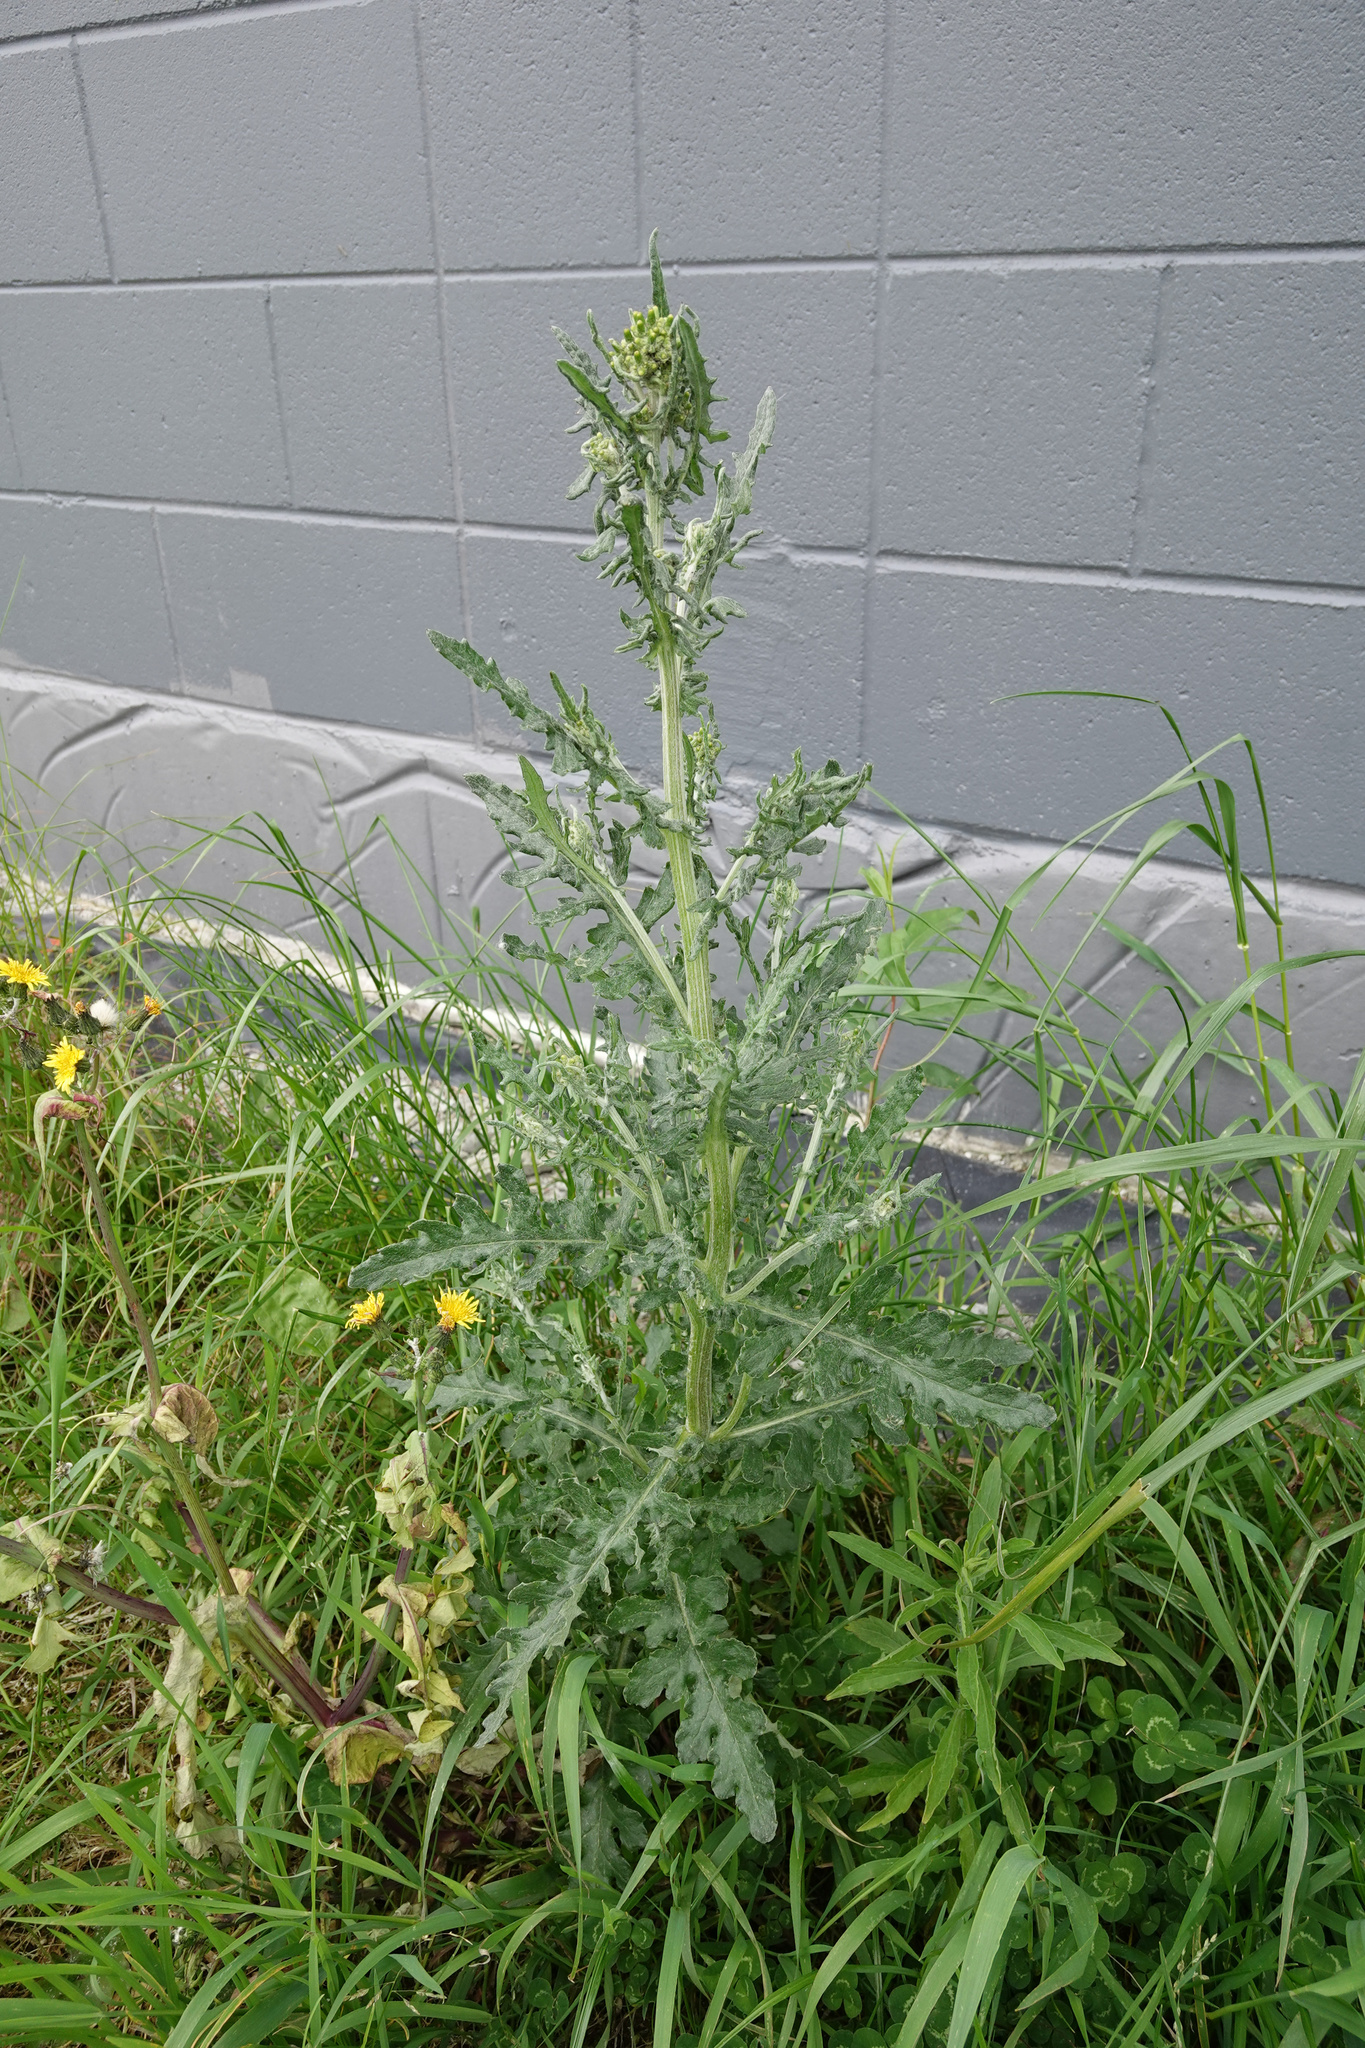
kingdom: Plantae
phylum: Tracheophyta
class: Magnoliopsida
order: Asterales
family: Asteraceae
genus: Senecio
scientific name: Senecio glomeratus
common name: Cutleaf burnweed
